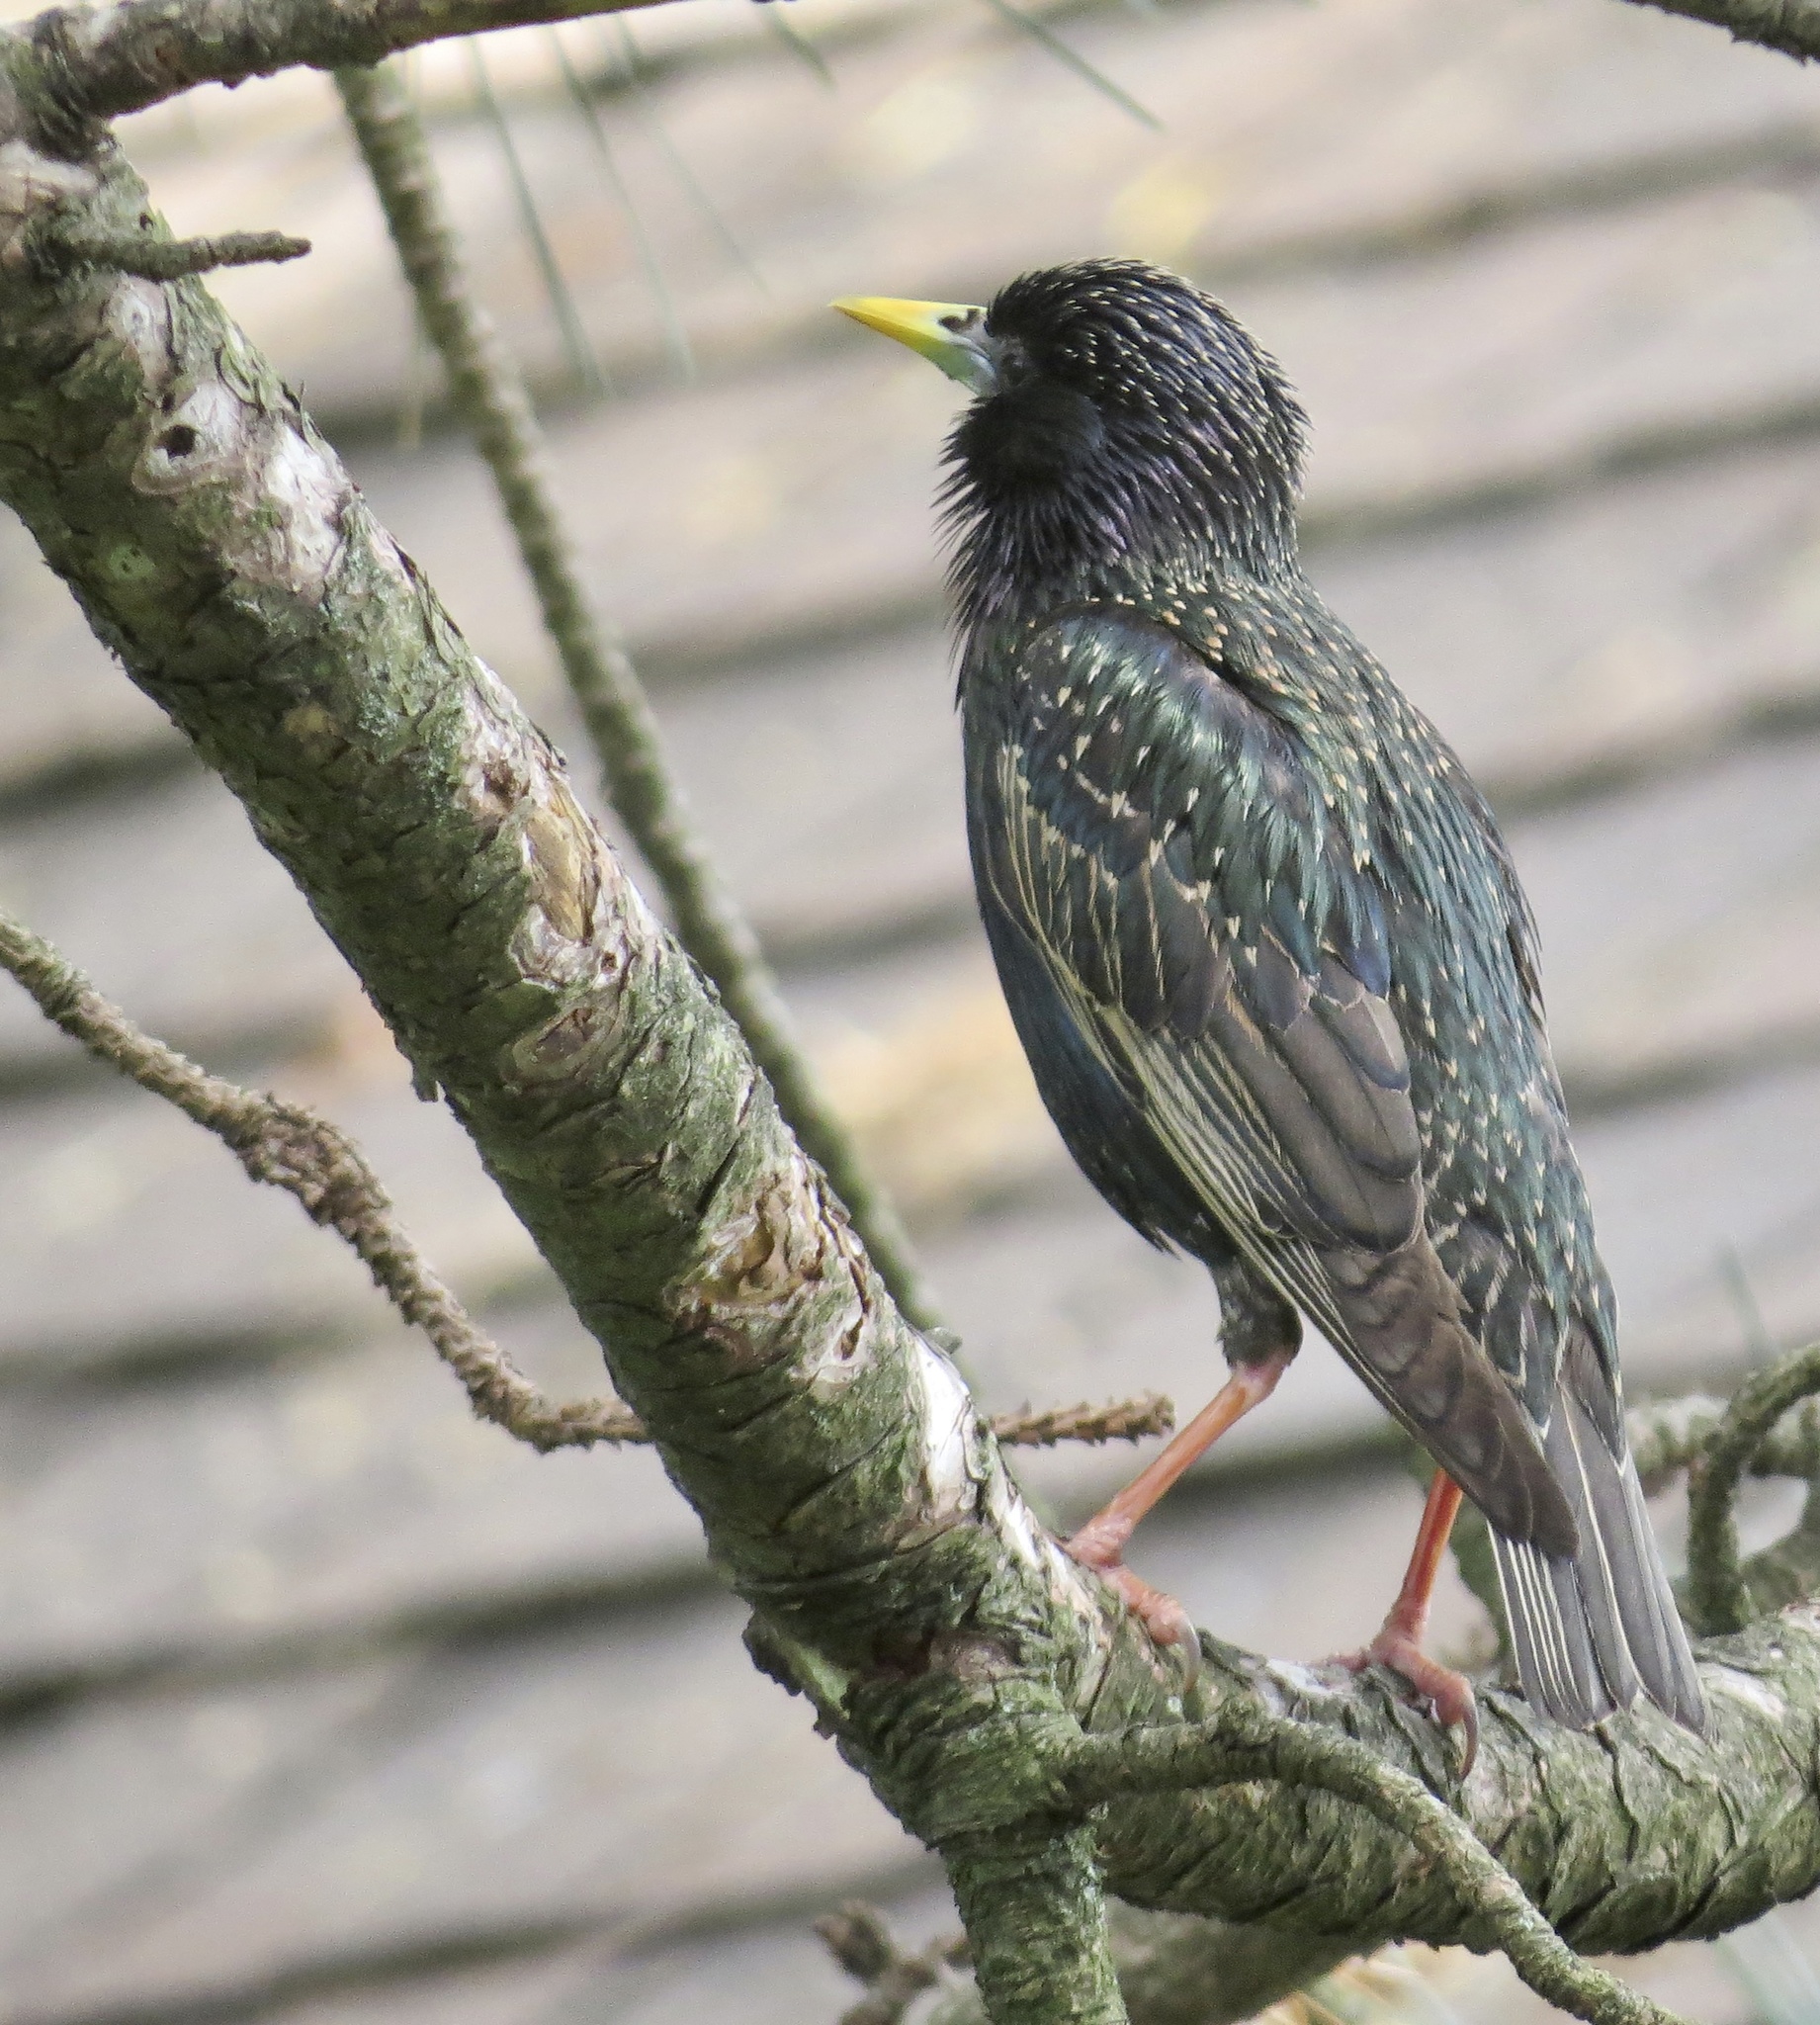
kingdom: Animalia
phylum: Chordata
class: Aves
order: Passeriformes
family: Sturnidae
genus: Sturnus
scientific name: Sturnus vulgaris
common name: Common starling
